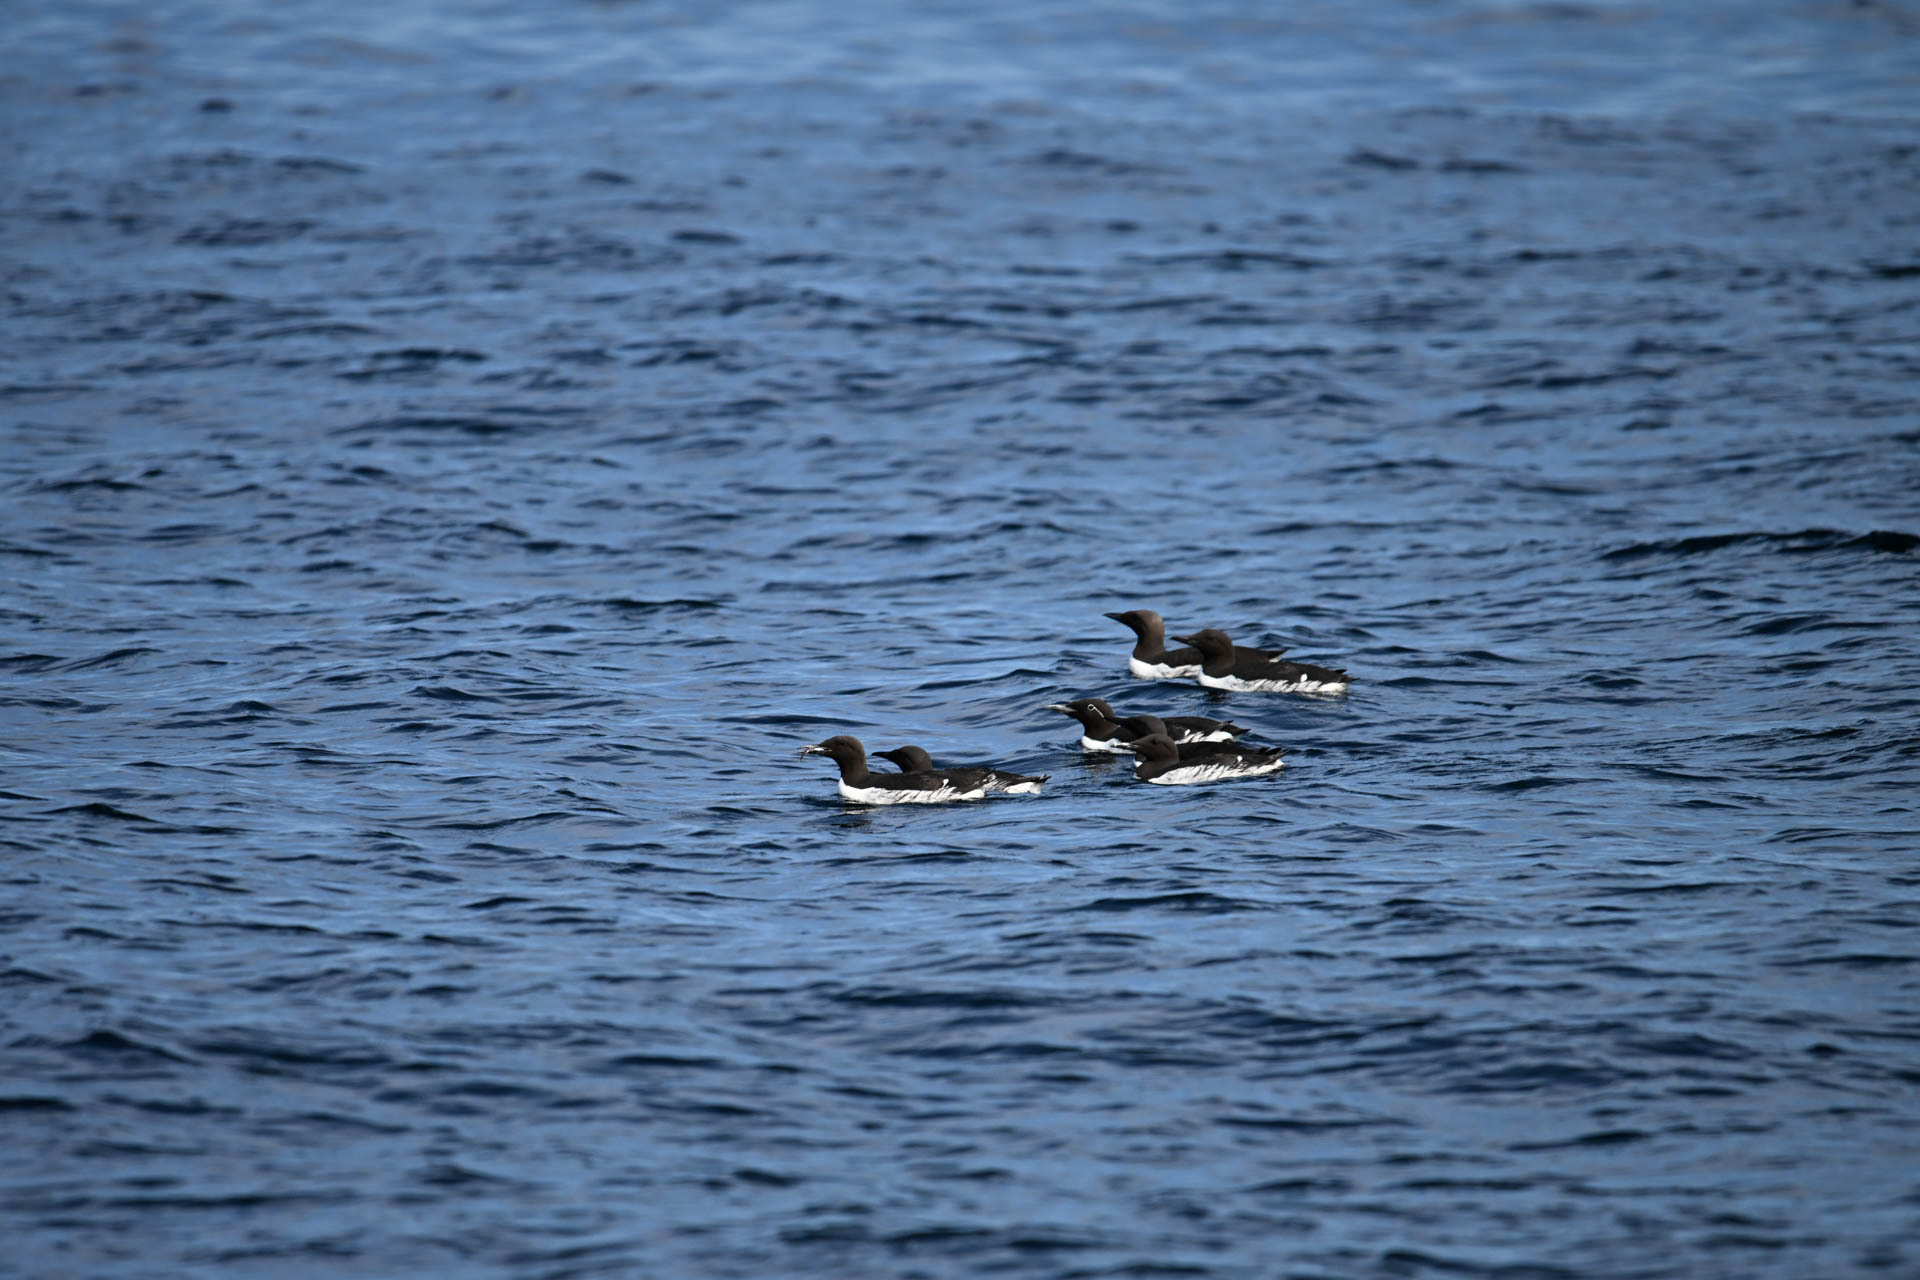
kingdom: Animalia
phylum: Chordata
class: Aves
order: Charadriiformes
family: Alcidae
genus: Uria
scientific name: Uria aalge
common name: Common murre
